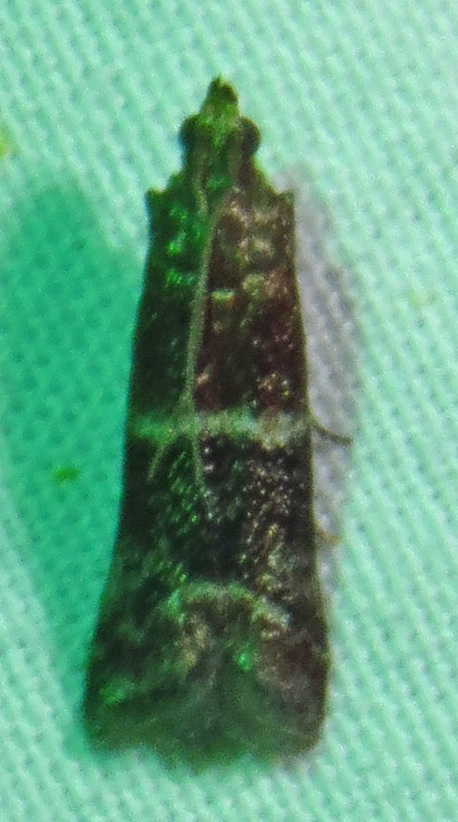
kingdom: Animalia
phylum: Arthropoda
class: Insecta
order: Lepidoptera
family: Pyralidae
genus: Moodna
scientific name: Moodna ostrinella
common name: Darker moodna moth
